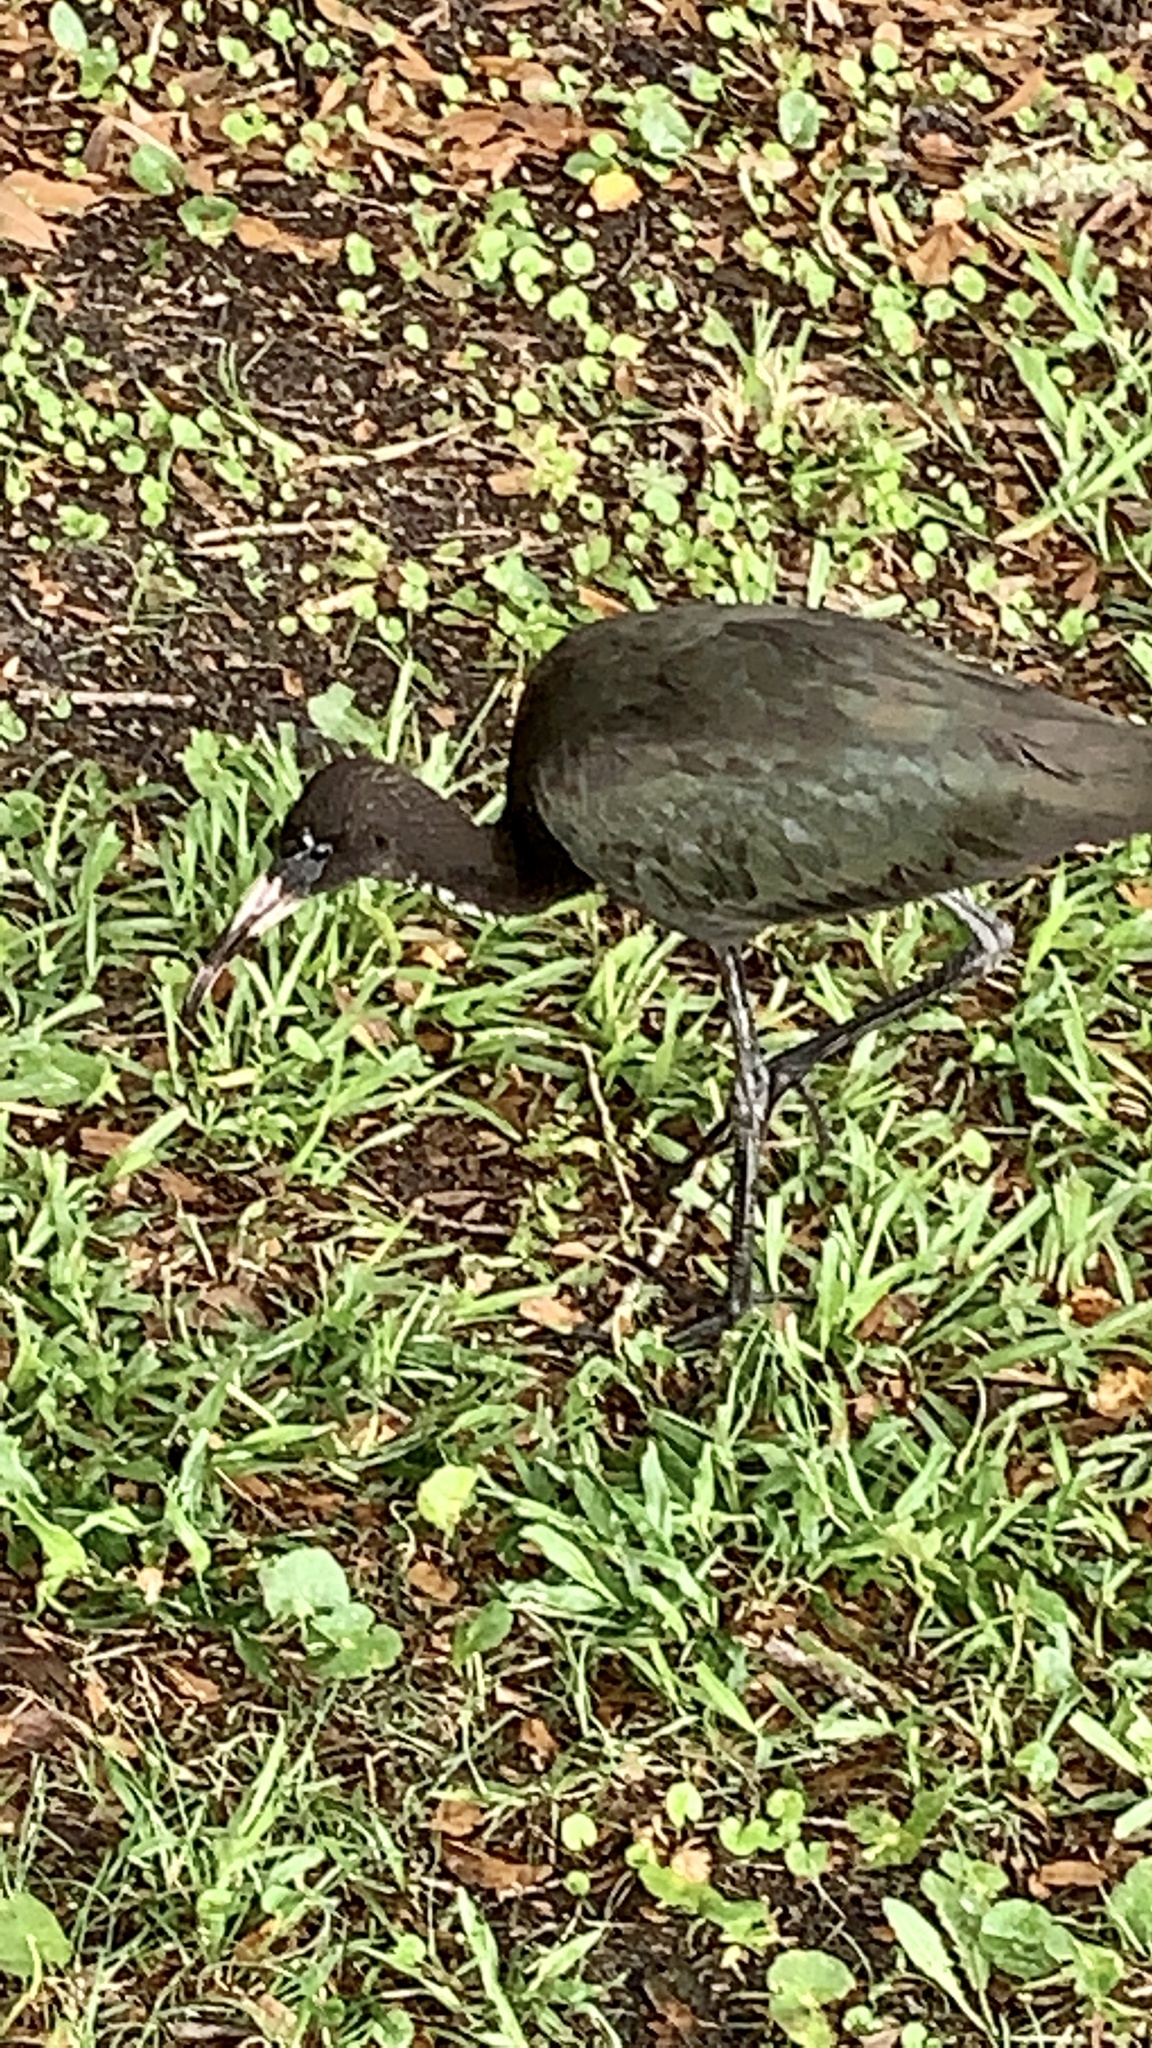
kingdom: Animalia
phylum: Chordata
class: Aves
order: Pelecaniformes
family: Threskiornithidae
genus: Plegadis
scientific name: Plegadis falcinellus
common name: Glossy ibis
